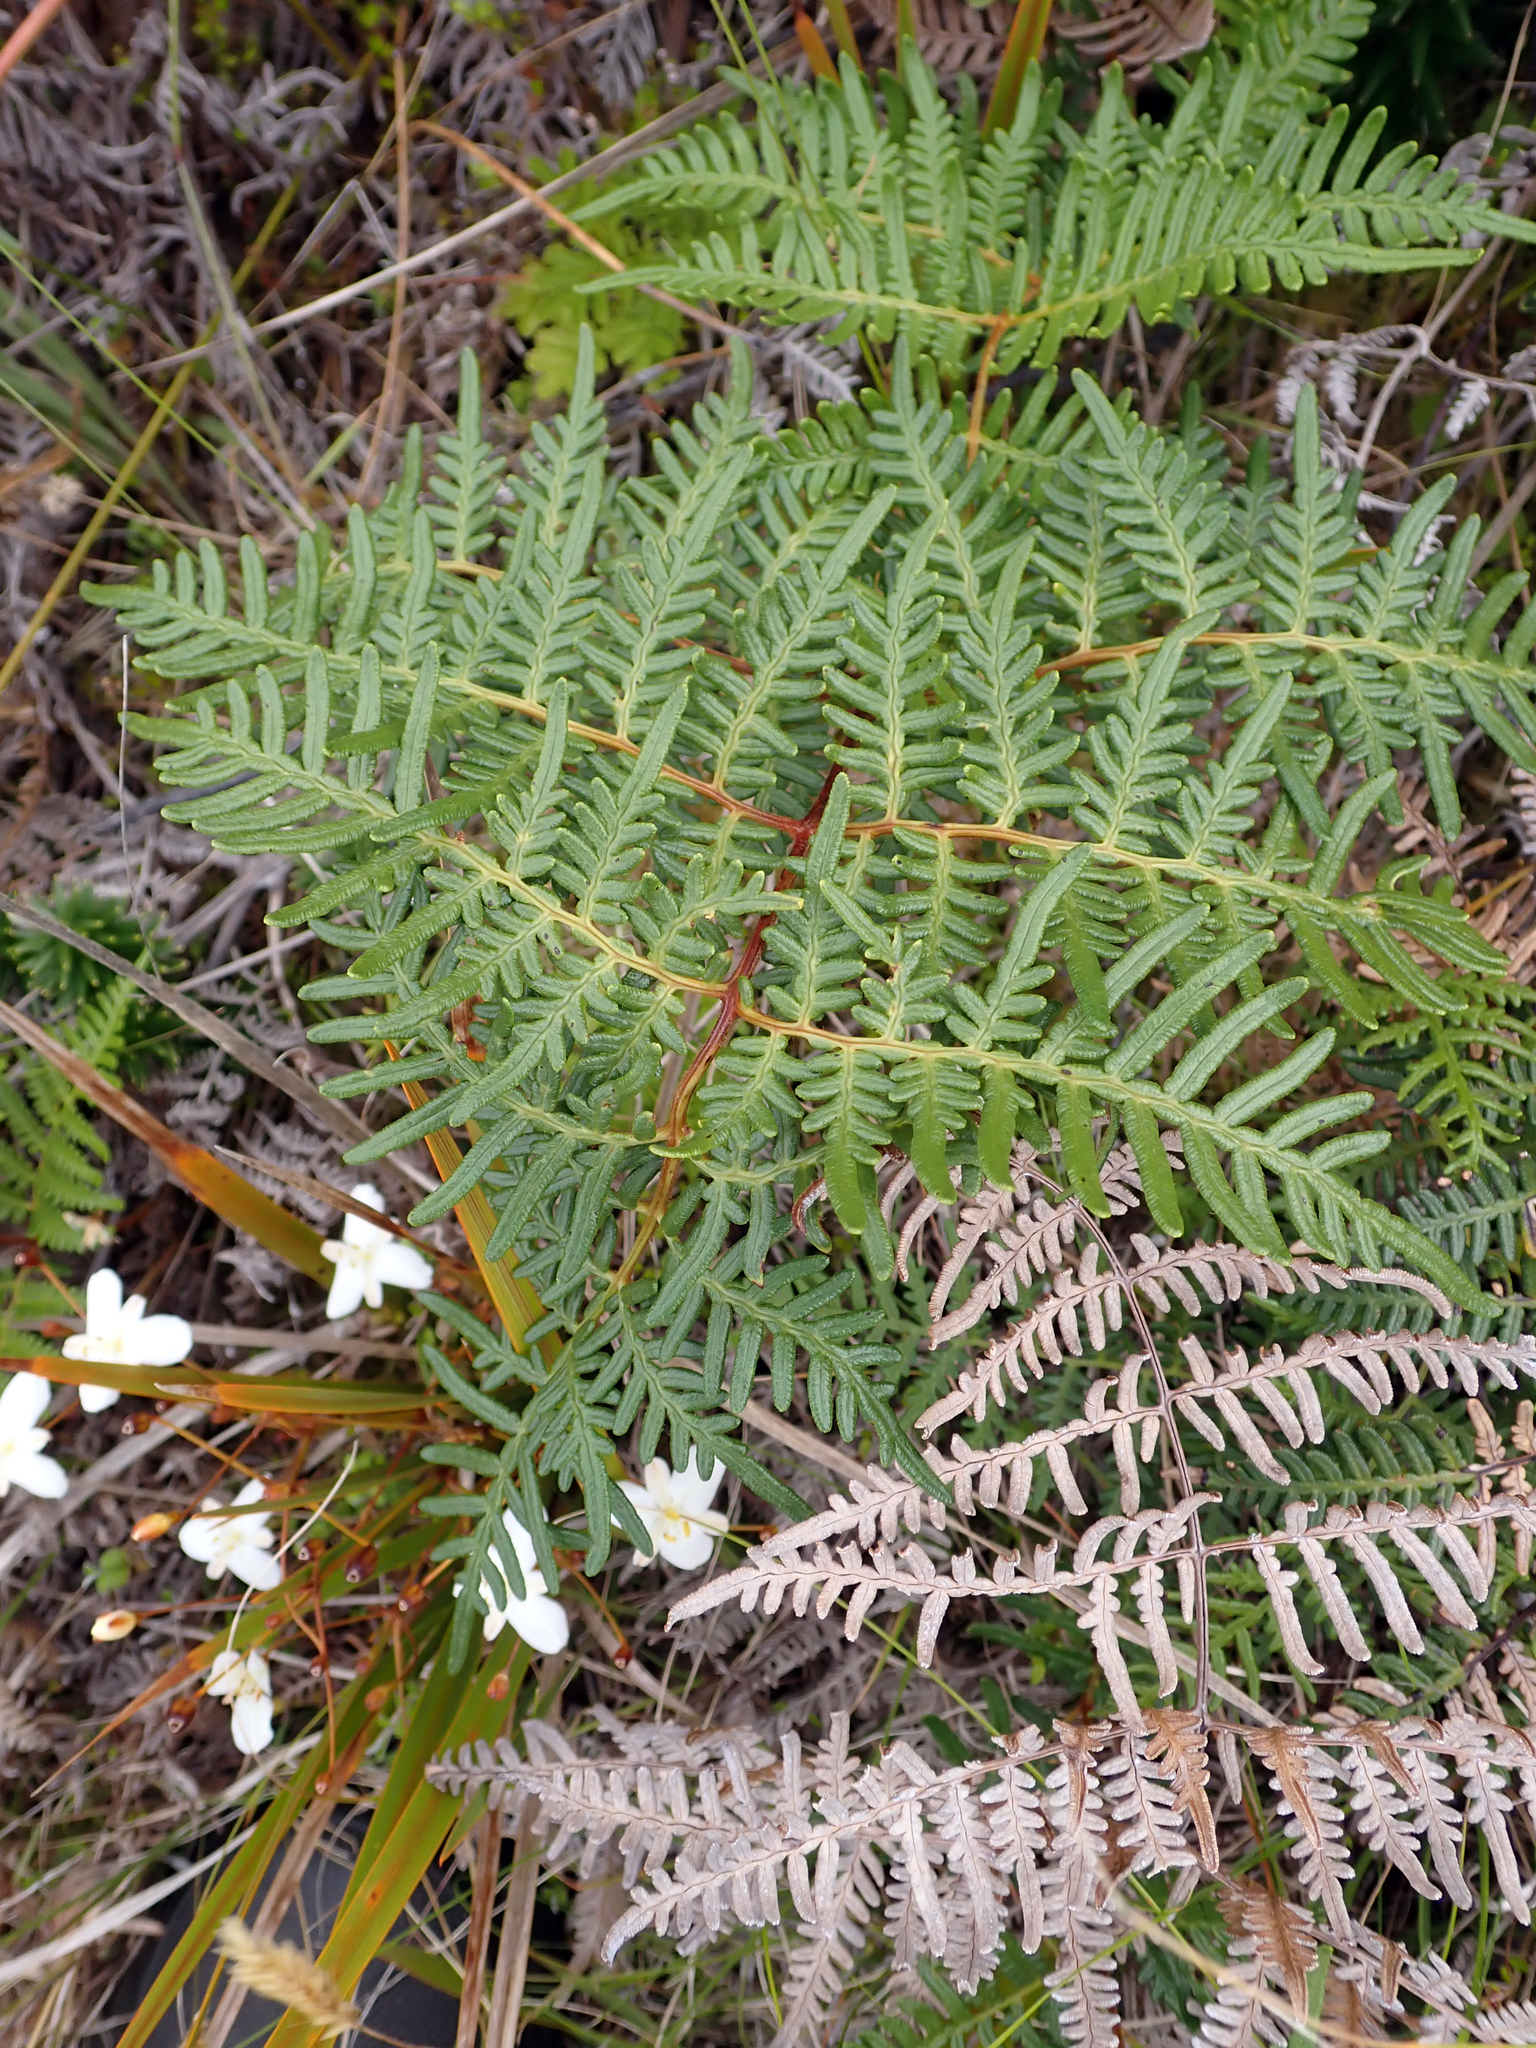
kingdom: Plantae
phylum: Tracheophyta
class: Polypodiopsida
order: Polypodiales
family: Dennstaedtiaceae
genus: Pteridium
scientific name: Pteridium esculentum
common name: Bracken fern
